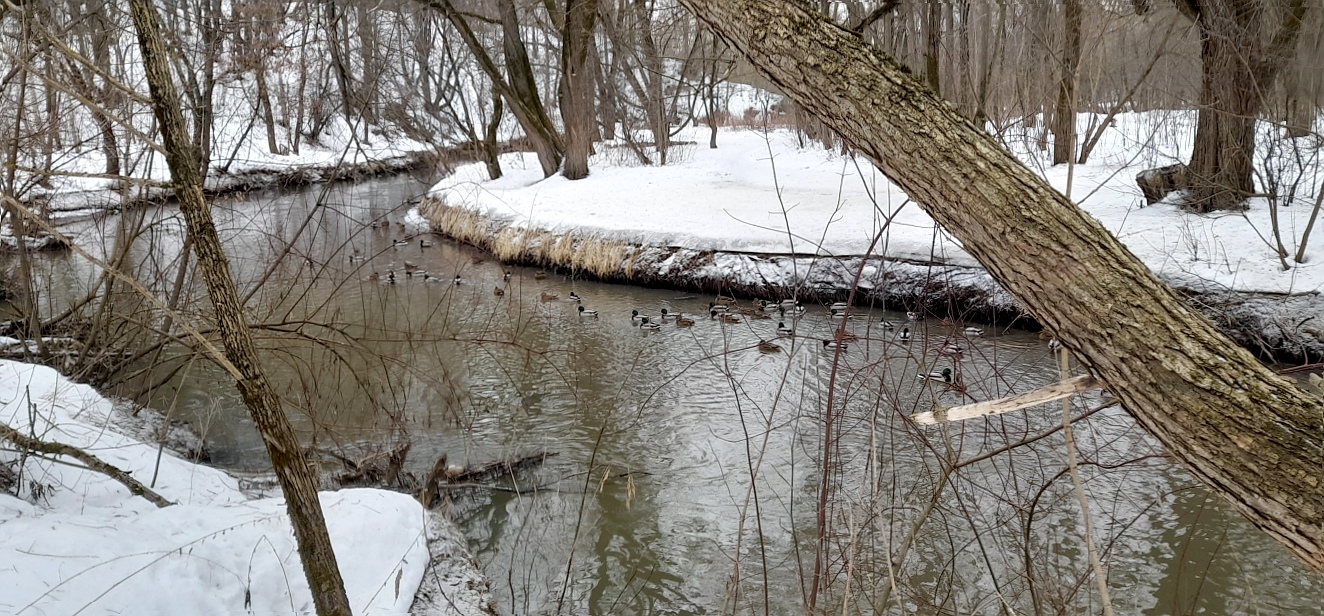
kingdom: Animalia
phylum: Chordata
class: Aves
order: Anseriformes
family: Anatidae
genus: Anas
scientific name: Anas platyrhynchos
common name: Mallard
